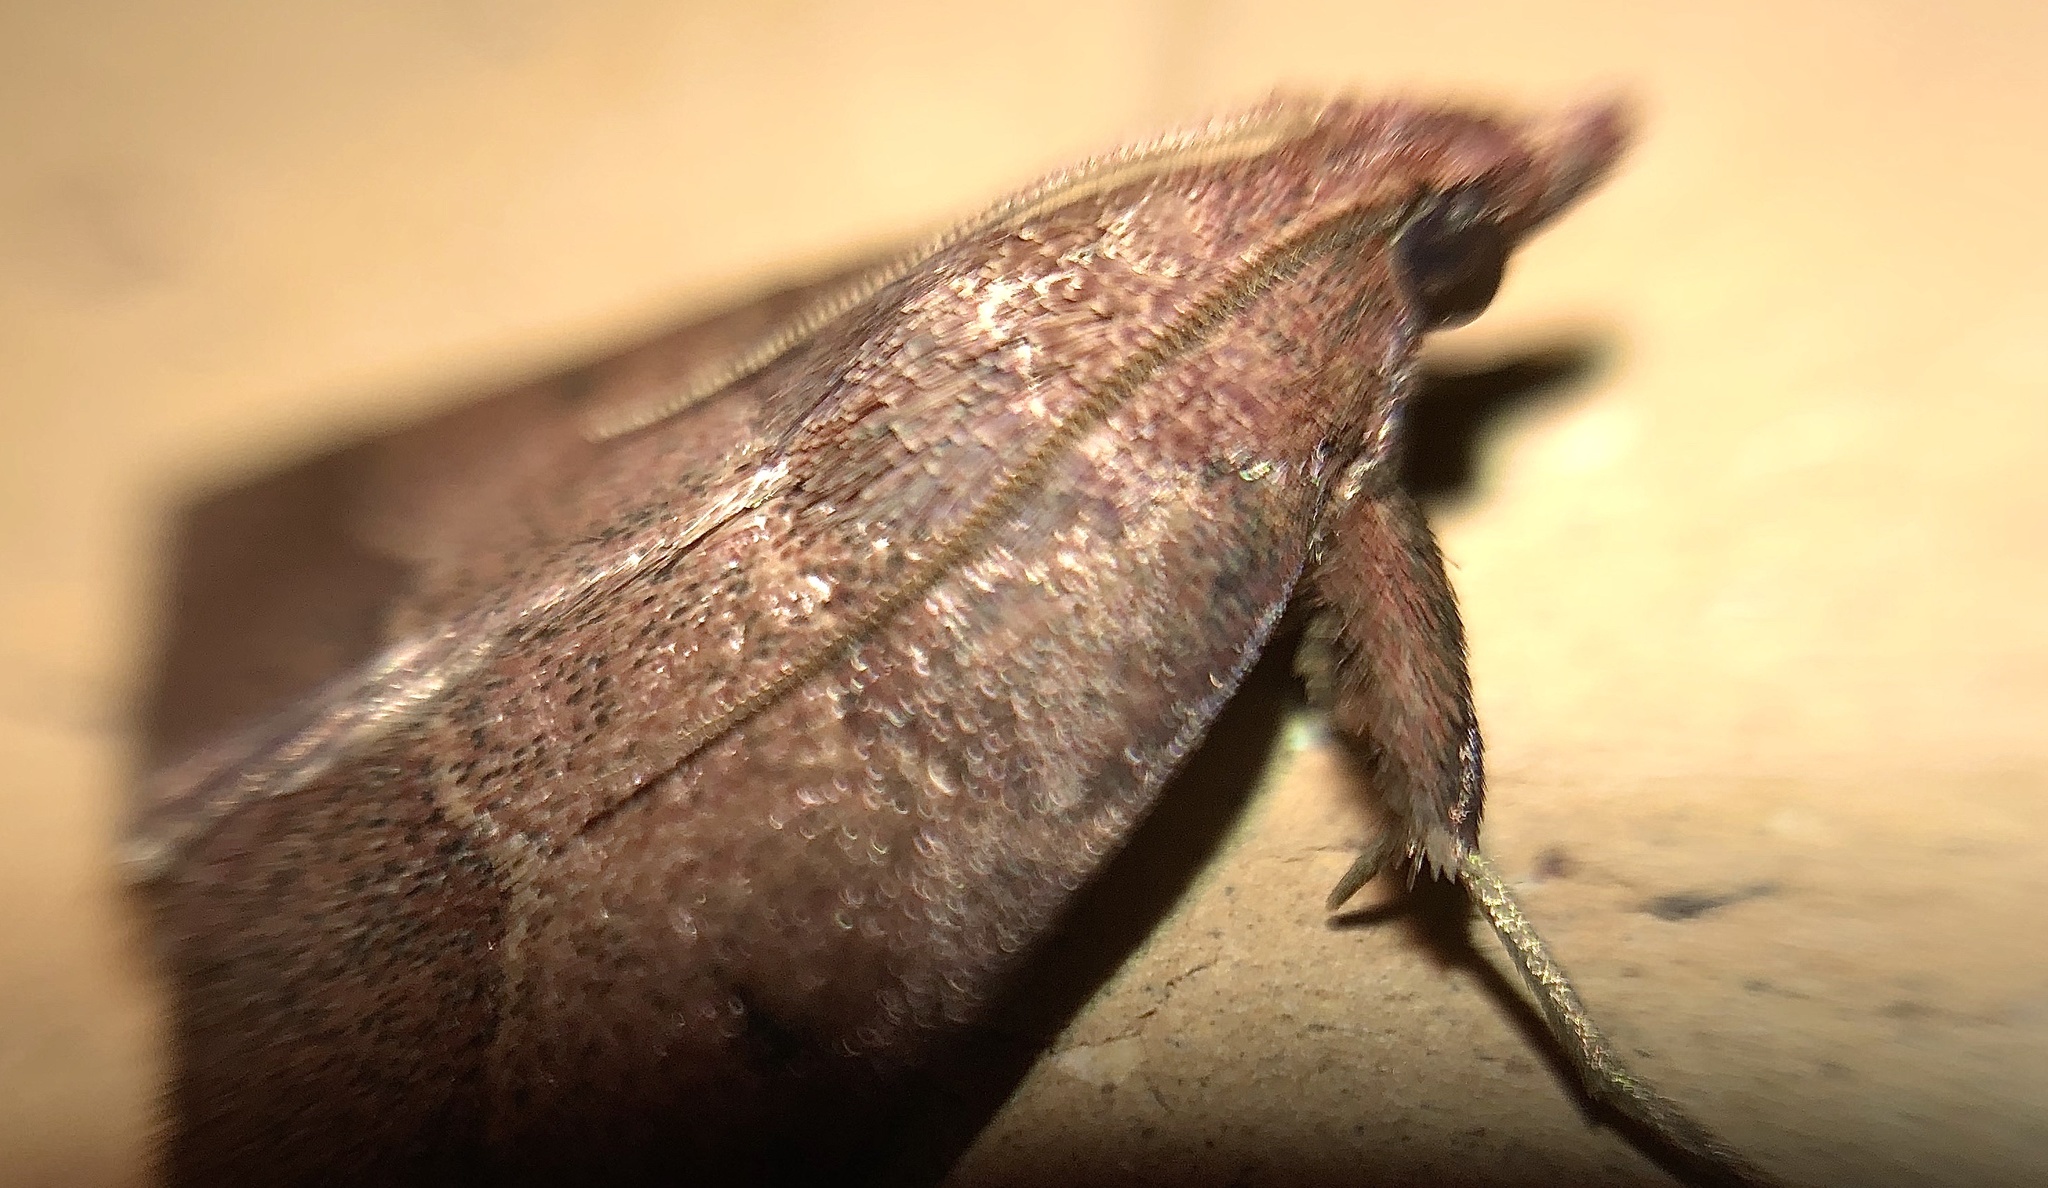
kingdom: Animalia
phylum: Arthropoda
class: Insecta
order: Lepidoptera
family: Pyralidae
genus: Arippara
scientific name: Arippara disticha
